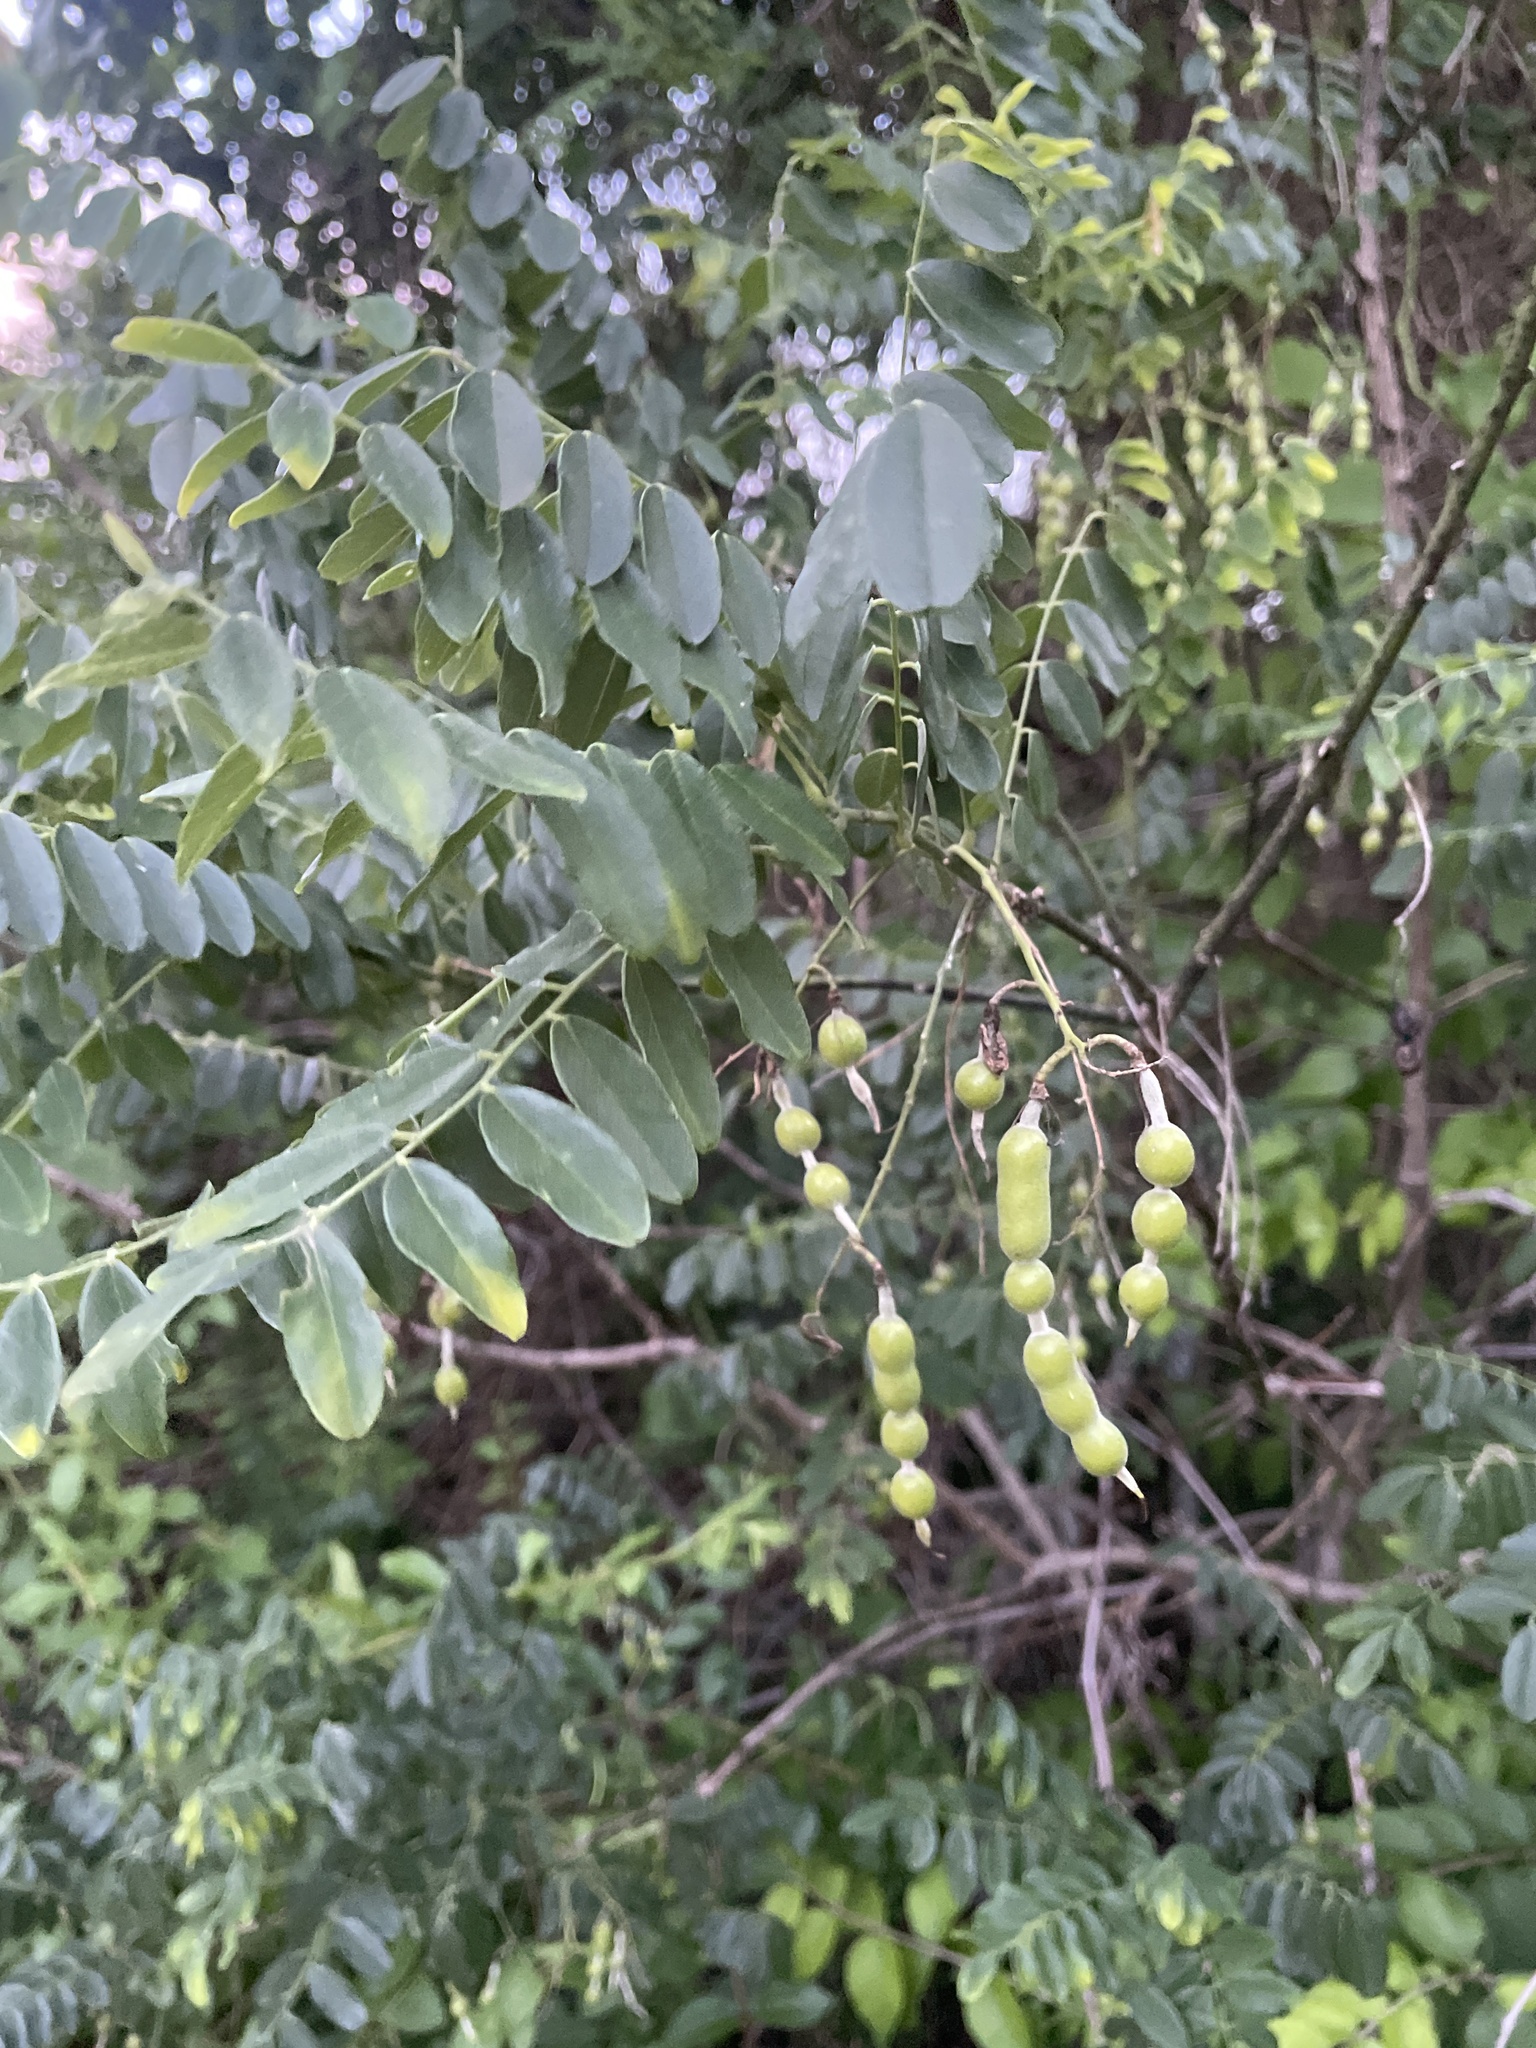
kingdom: Plantae
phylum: Tracheophyta
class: Magnoliopsida
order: Fabales
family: Fabaceae
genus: Styphnolobium
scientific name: Styphnolobium affine
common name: Texas sophora
